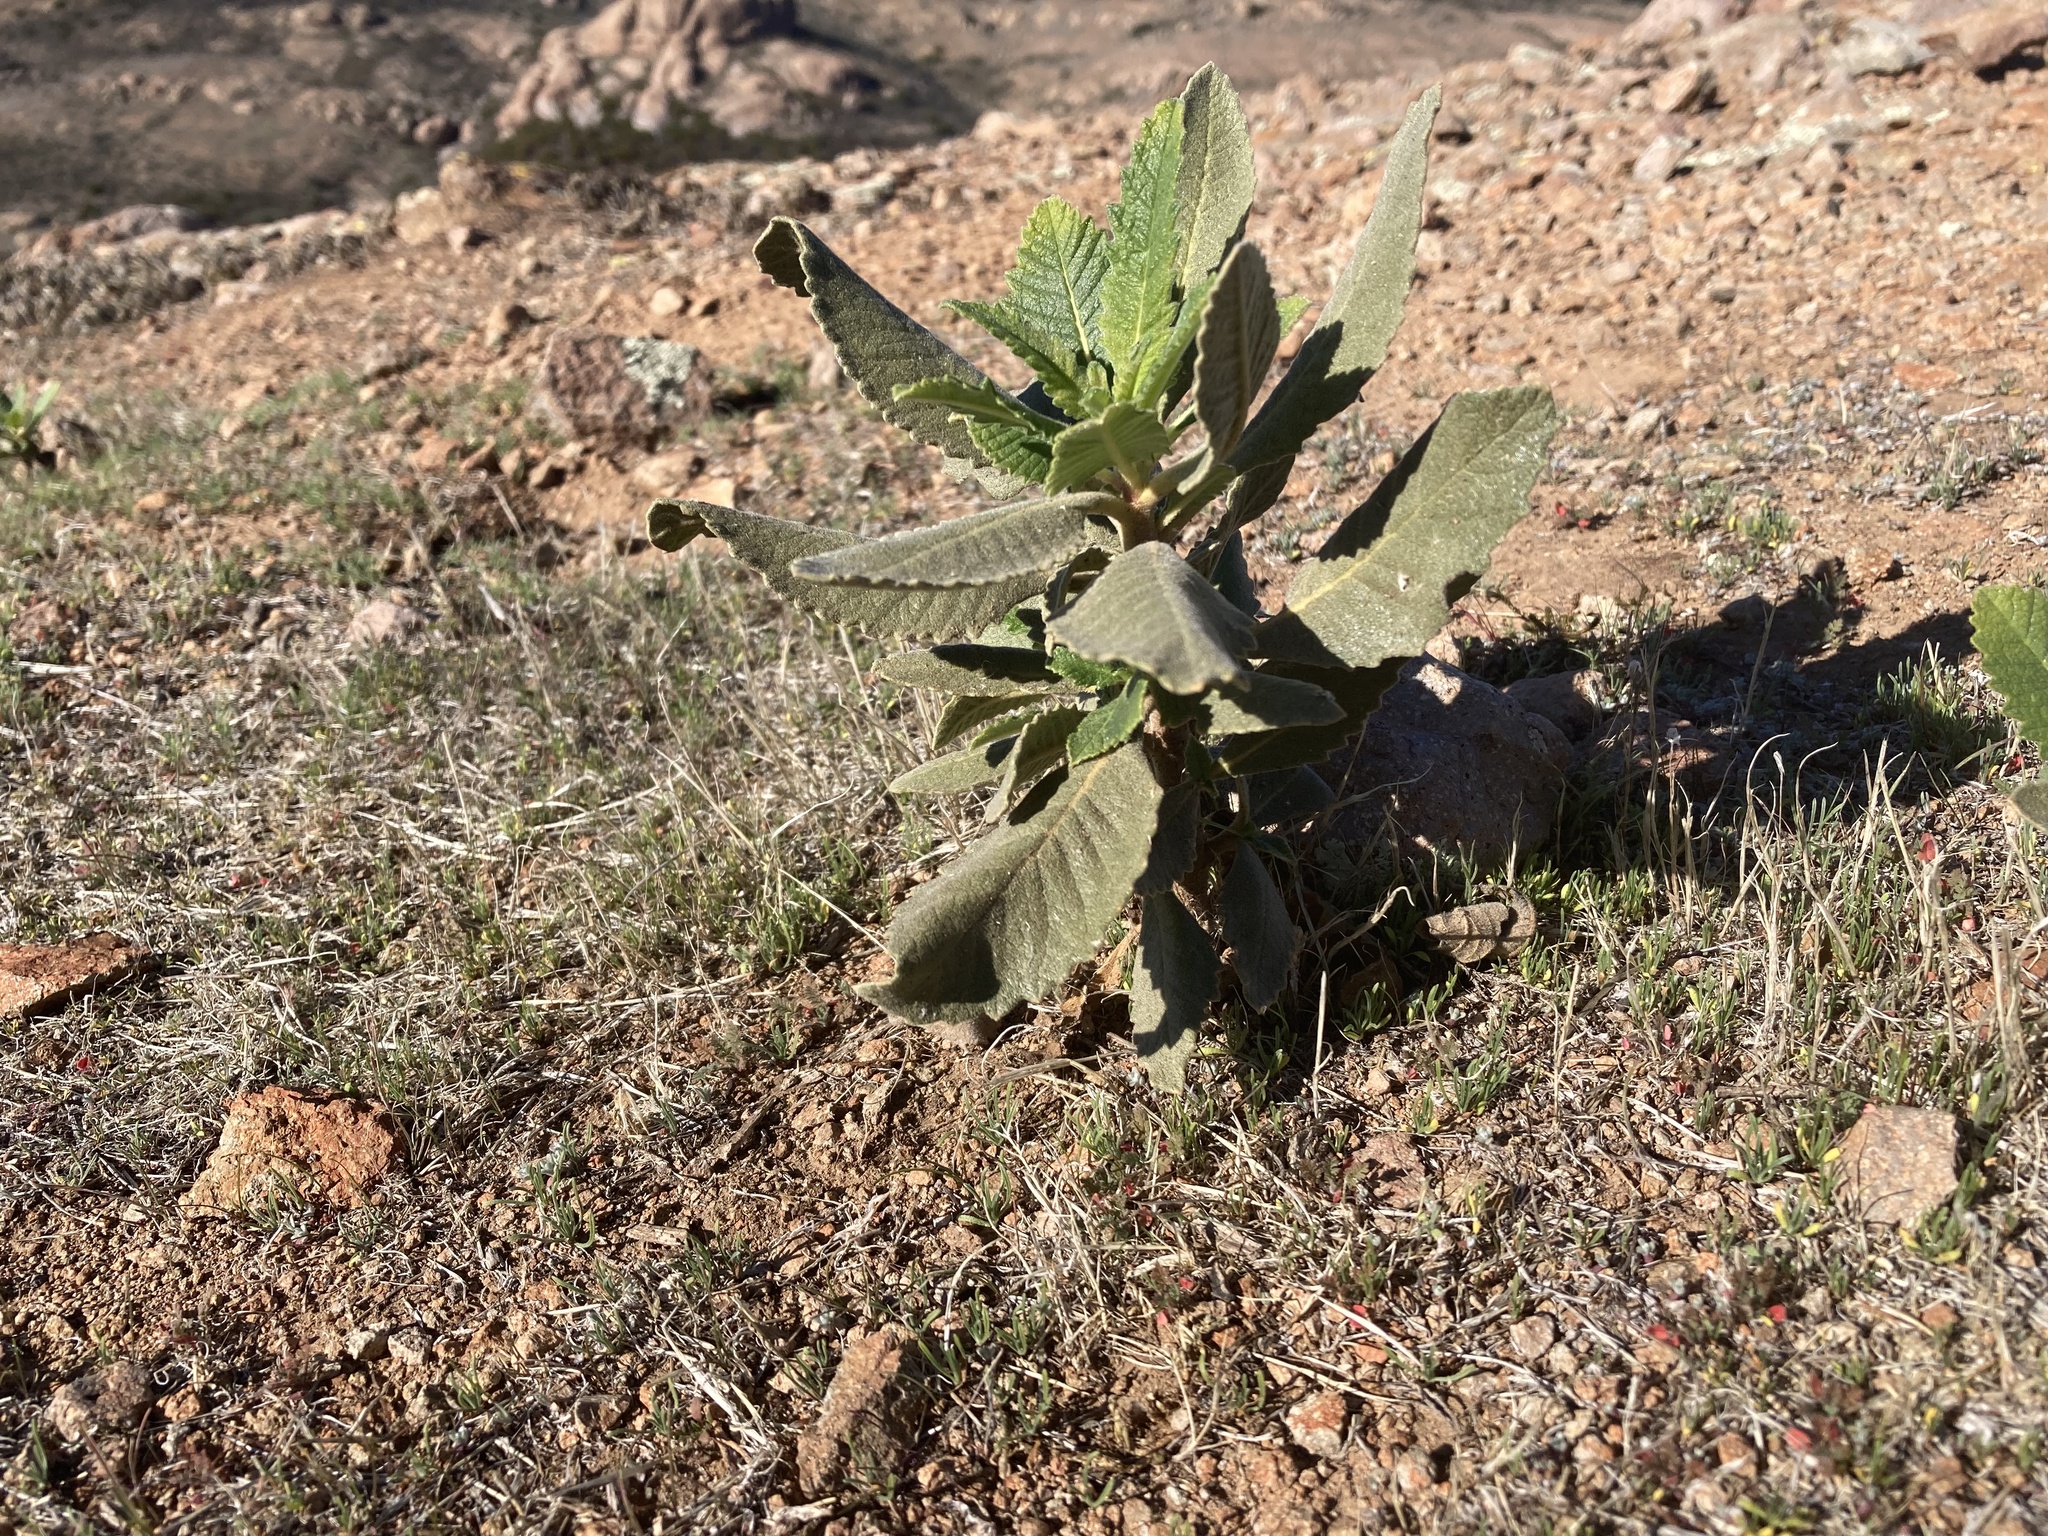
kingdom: Plantae
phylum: Tracheophyta
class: Magnoliopsida
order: Boraginales
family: Namaceae
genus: Eriodictyon
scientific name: Eriodictyon crassifolium
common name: Thick-leaf yerba-santa
